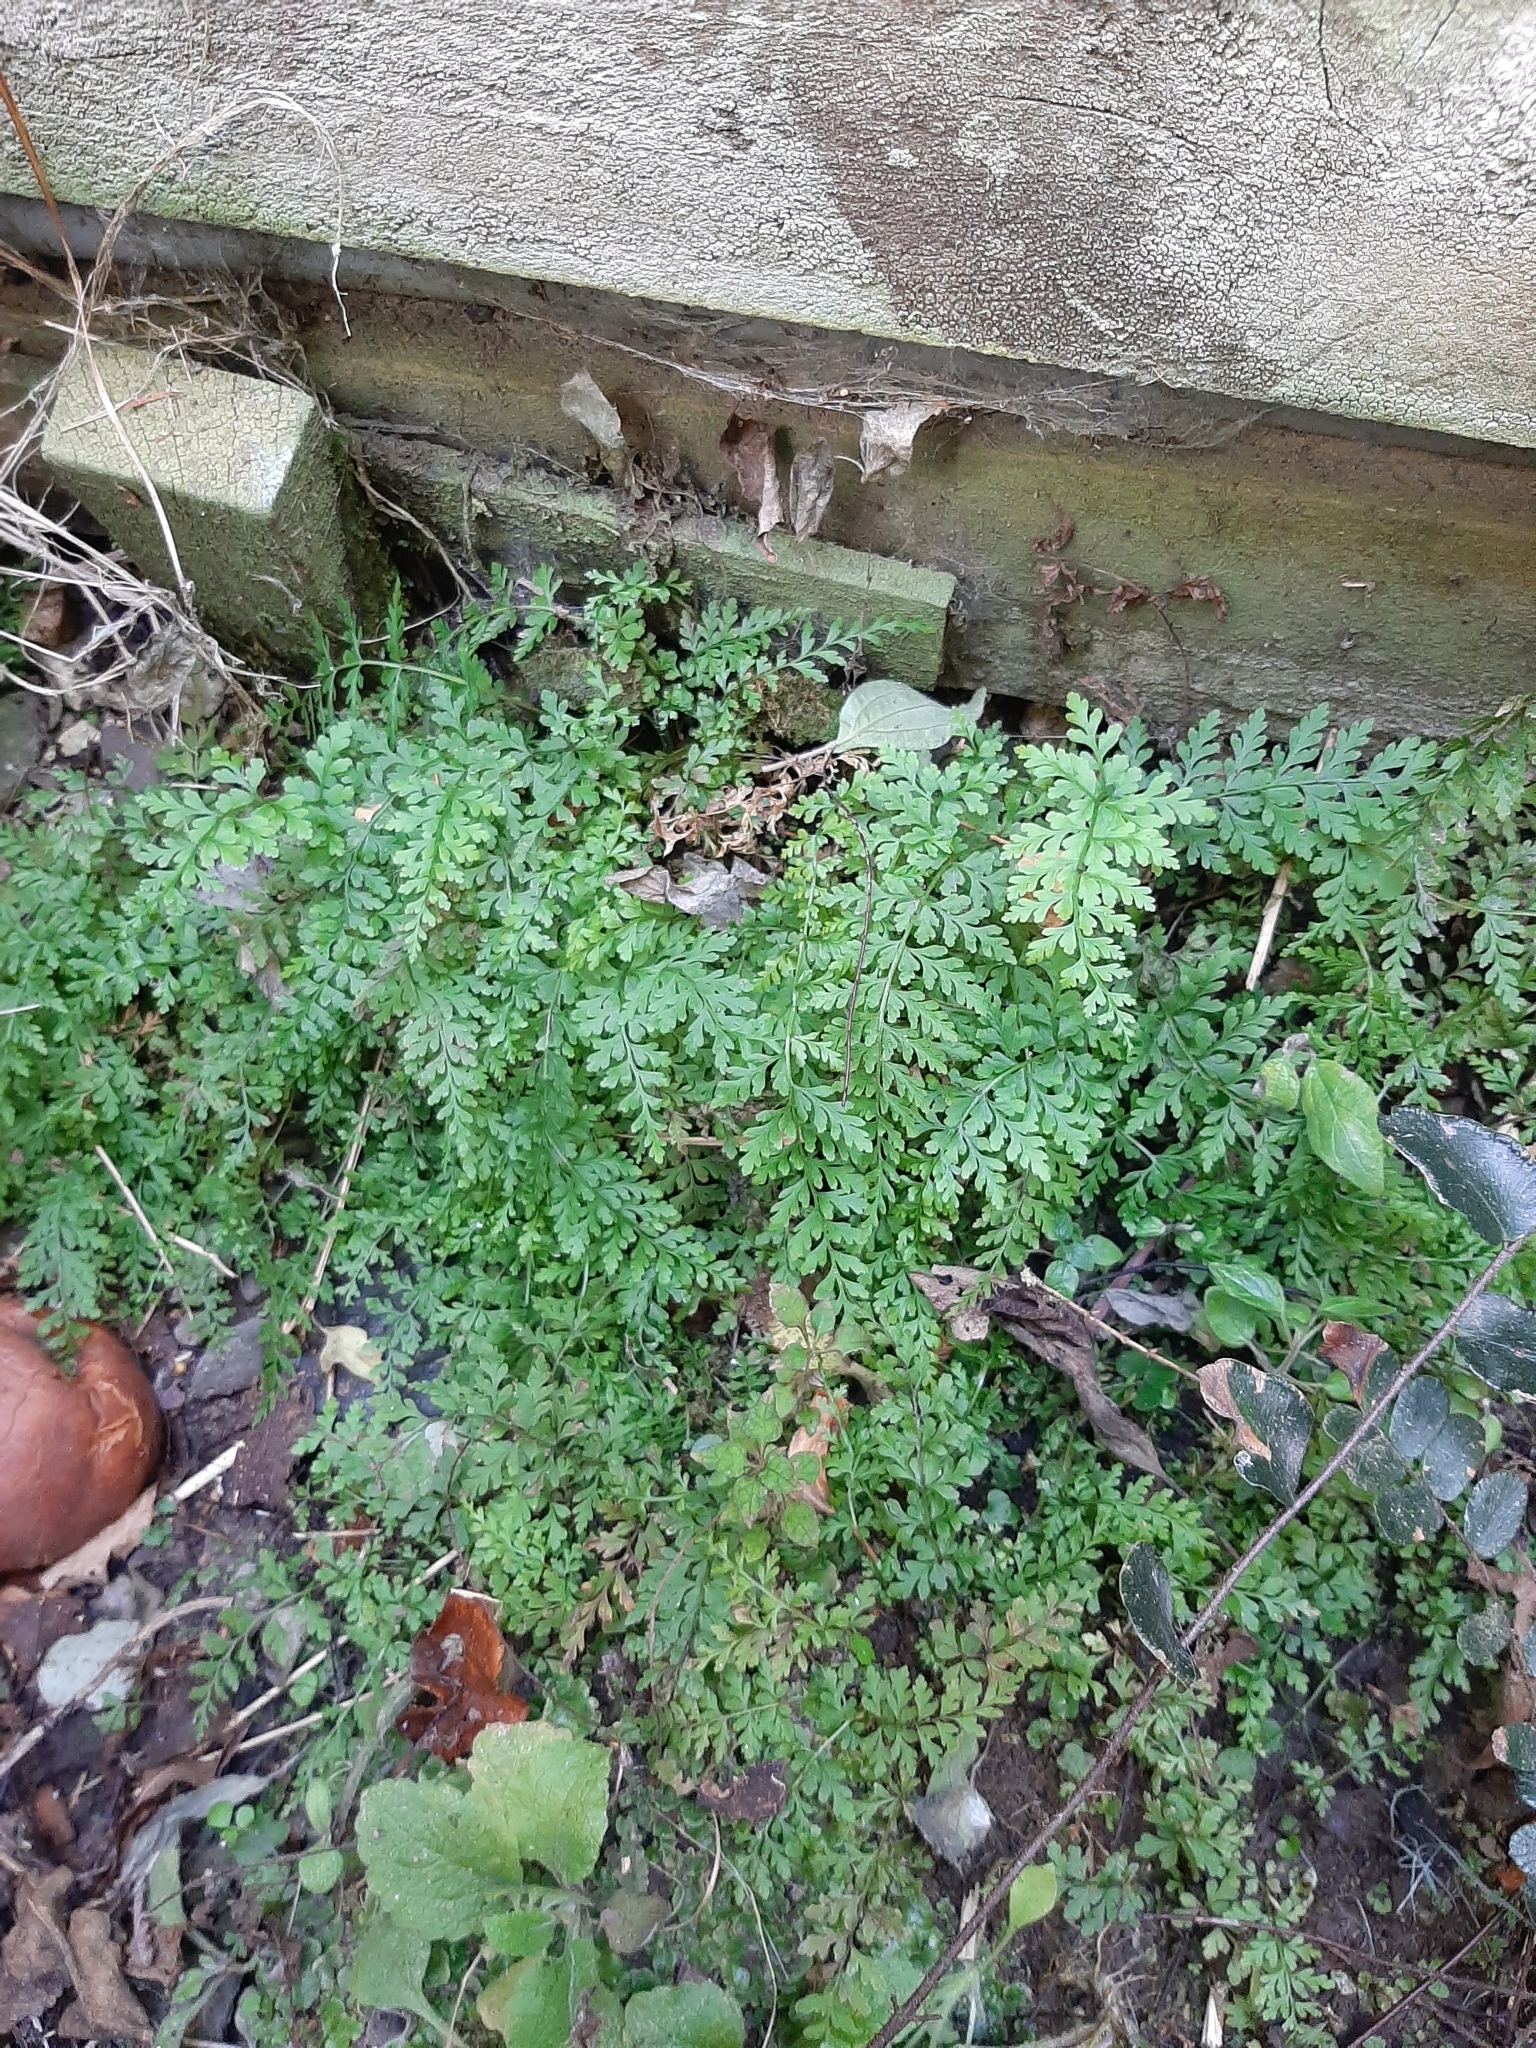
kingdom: Plantae
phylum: Tracheophyta
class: Polypodiopsida
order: Polypodiales
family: Cystopteridaceae
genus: Cystopteris
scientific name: Cystopteris fragilis
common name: Brittle bladder fern
